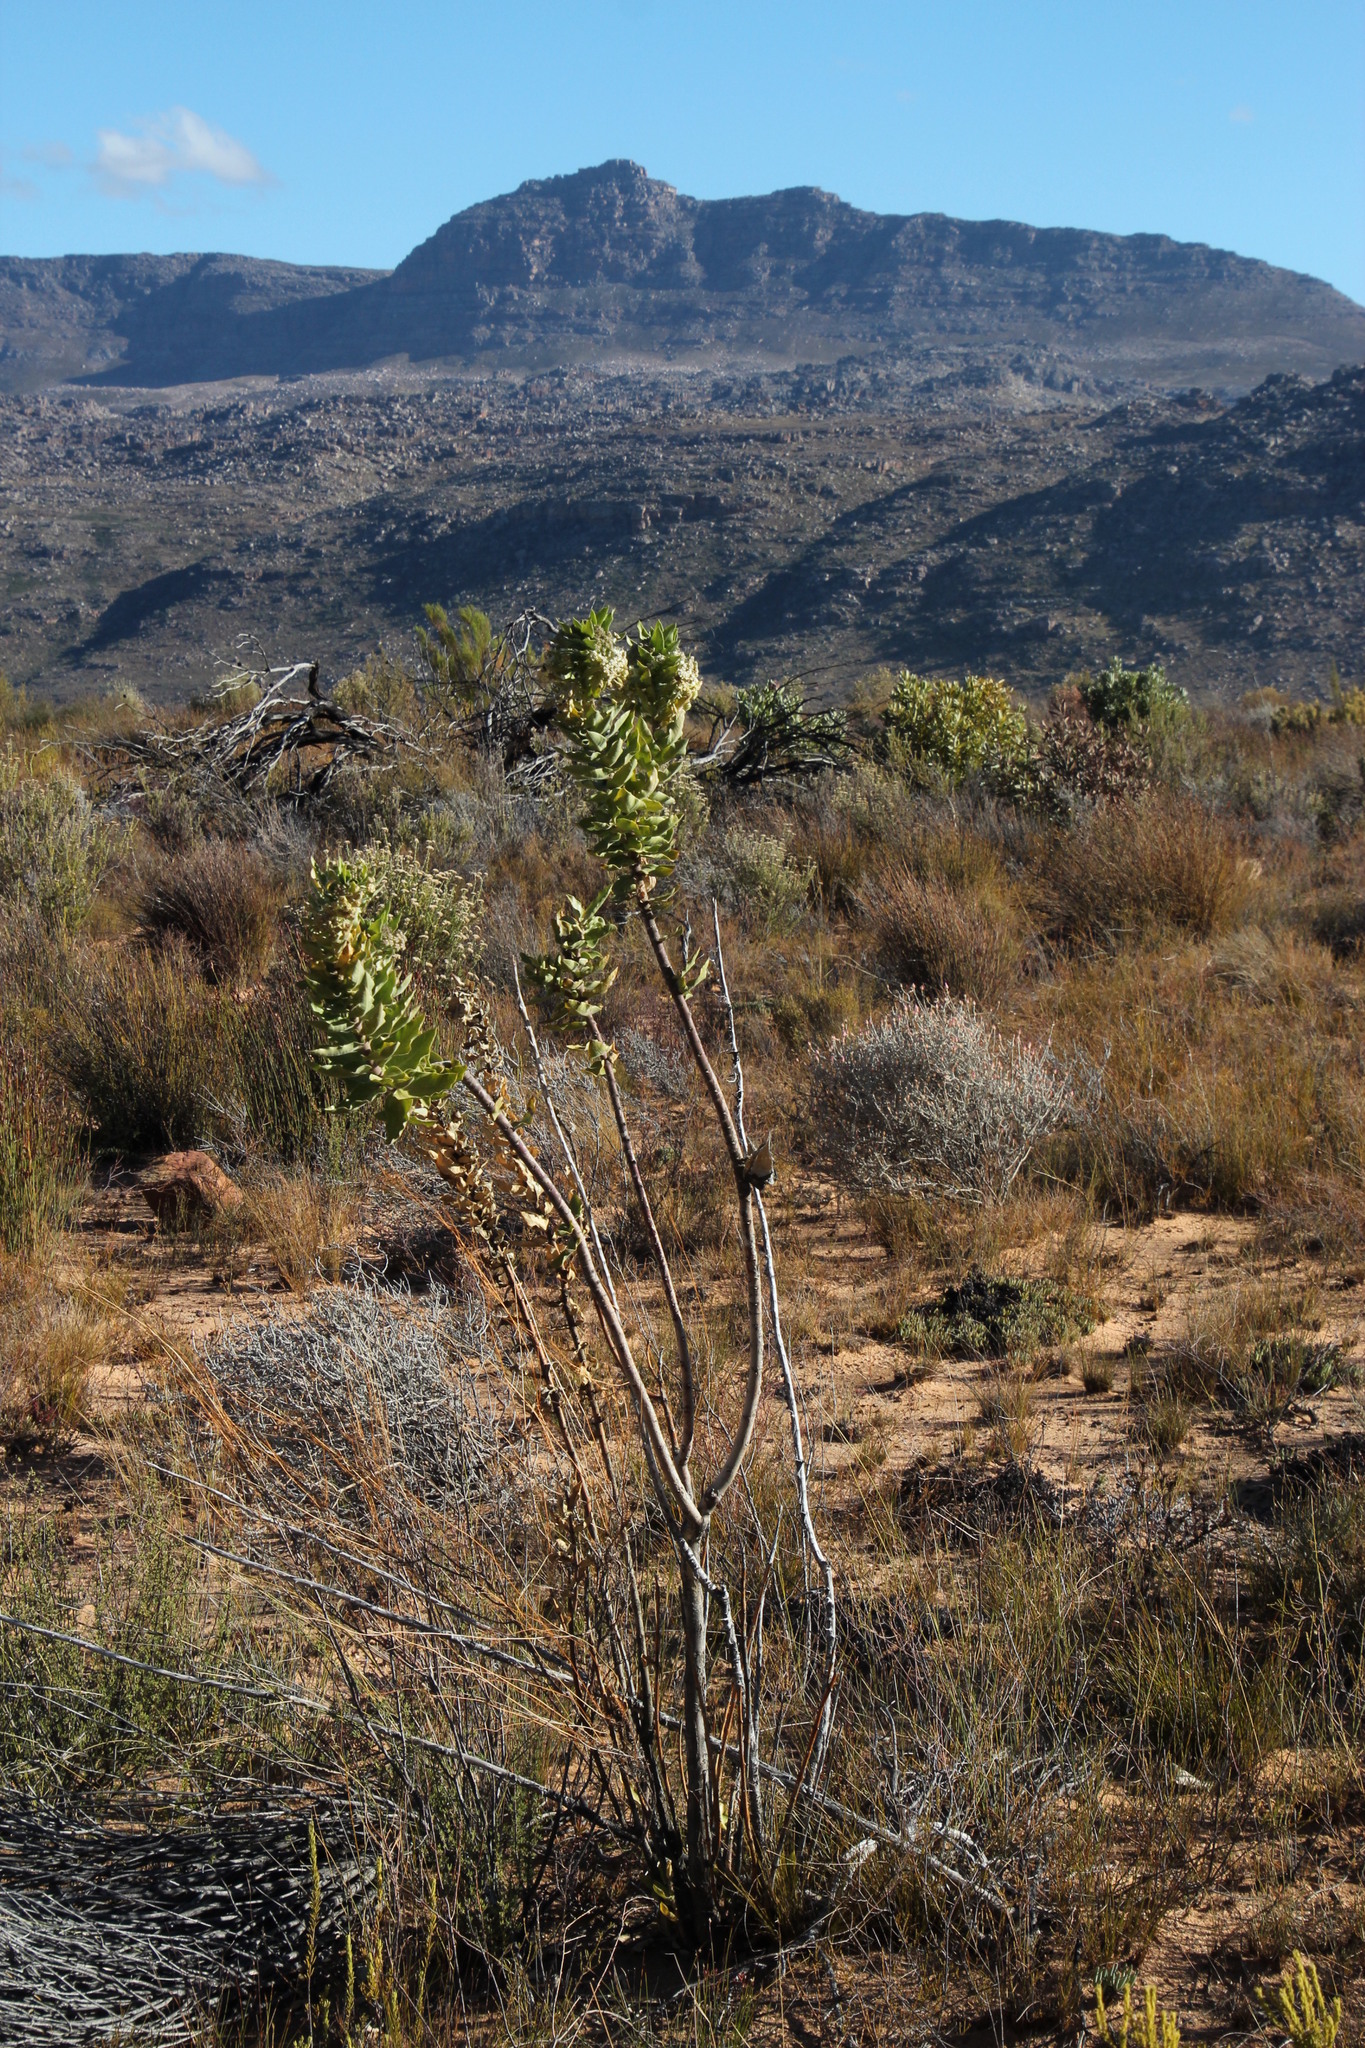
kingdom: Plantae
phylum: Tracheophyta
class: Magnoliopsida
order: Gentianales
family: Apocynaceae
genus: Gomphocarpus
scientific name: Gomphocarpus cancellatus
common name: Wild cotton
